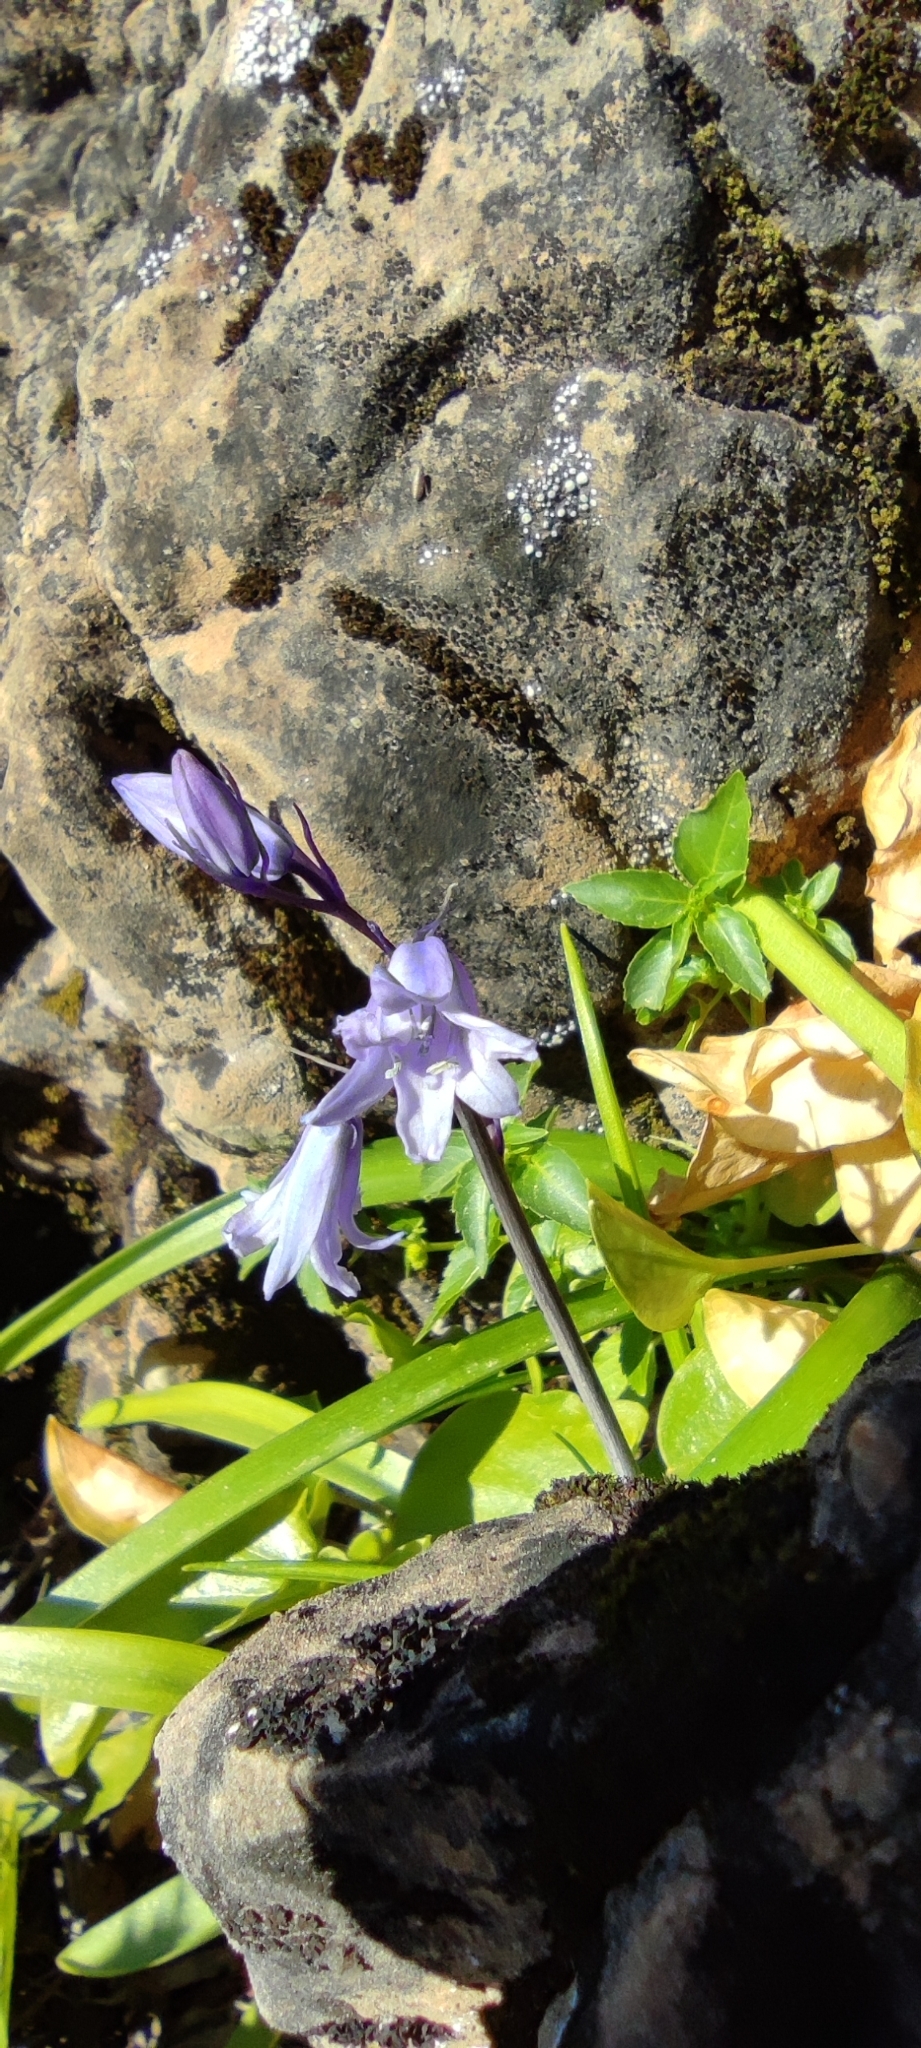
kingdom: Plantae
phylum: Tracheophyta
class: Liliopsida
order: Asparagales
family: Asparagaceae
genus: Hyacinthoides
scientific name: Hyacinthoides hispanica
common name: Spanish bluebell
